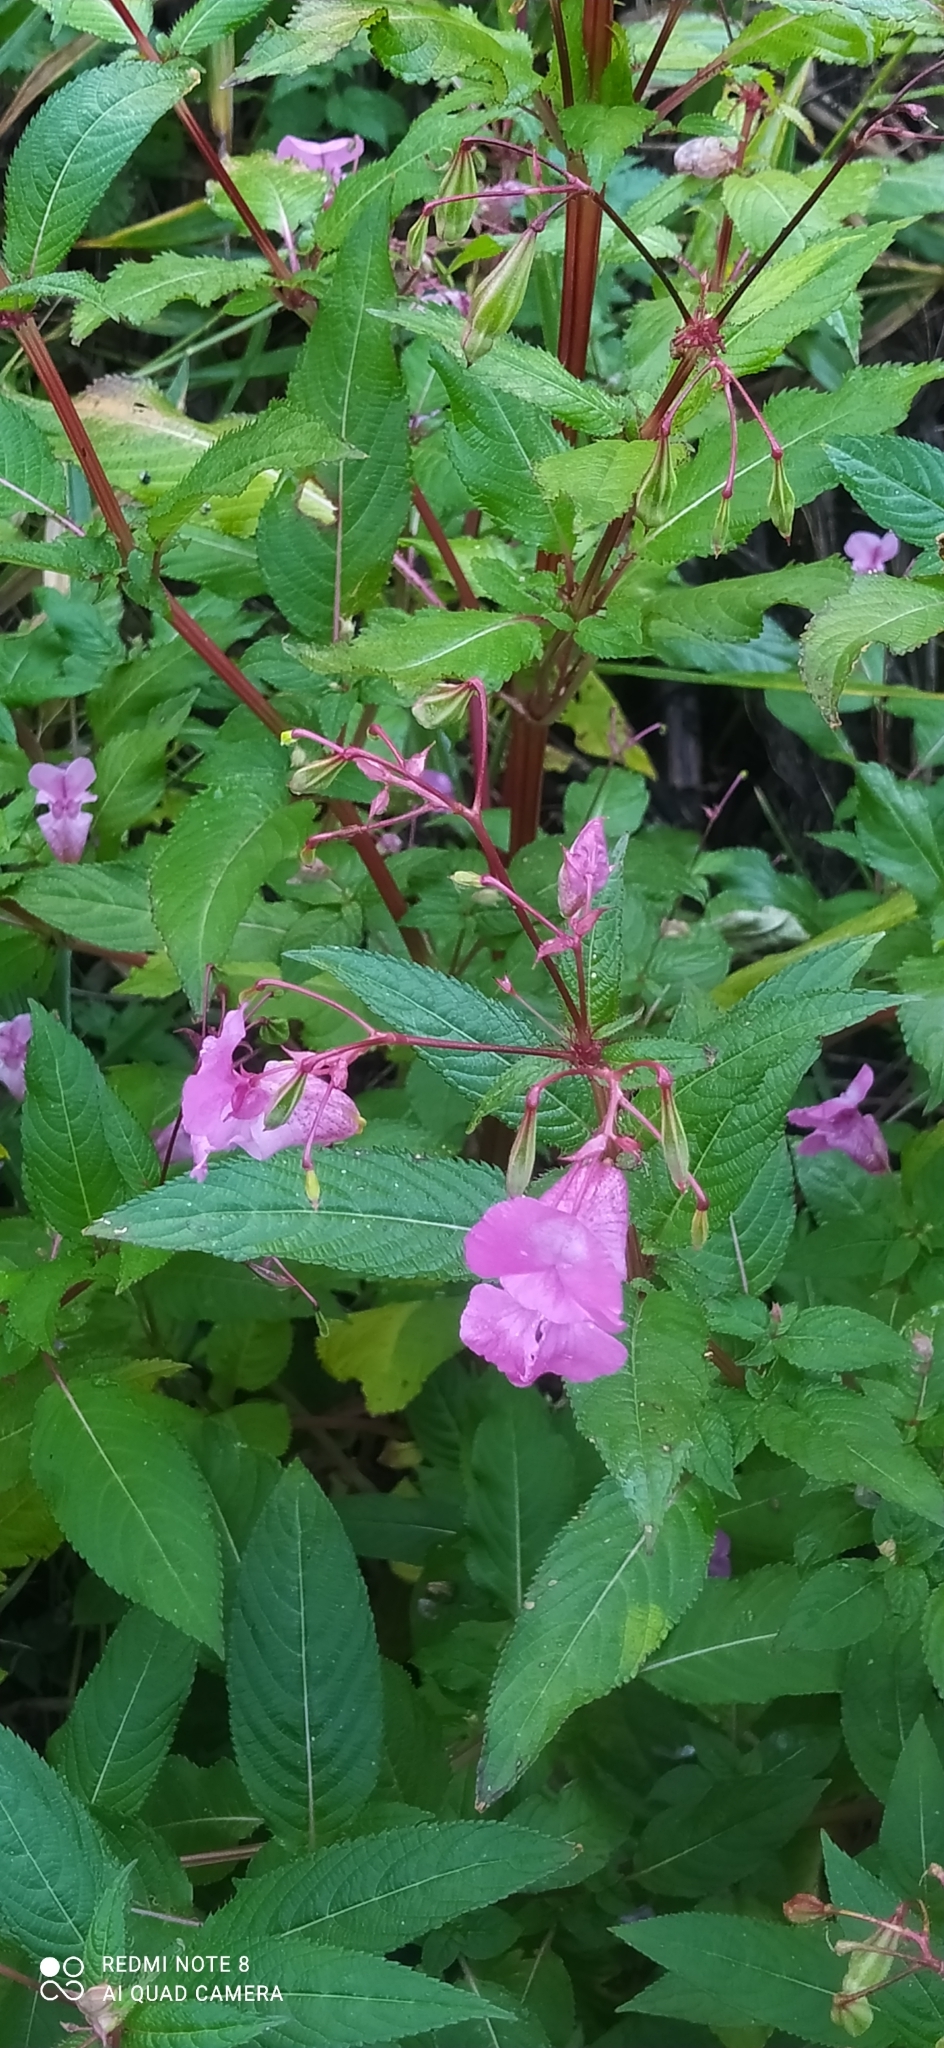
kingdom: Plantae
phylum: Tracheophyta
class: Magnoliopsida
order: Ericales
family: Balsaminaceae
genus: Impatiens
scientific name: Impatiens glandulifera
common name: Himalayan balsam
